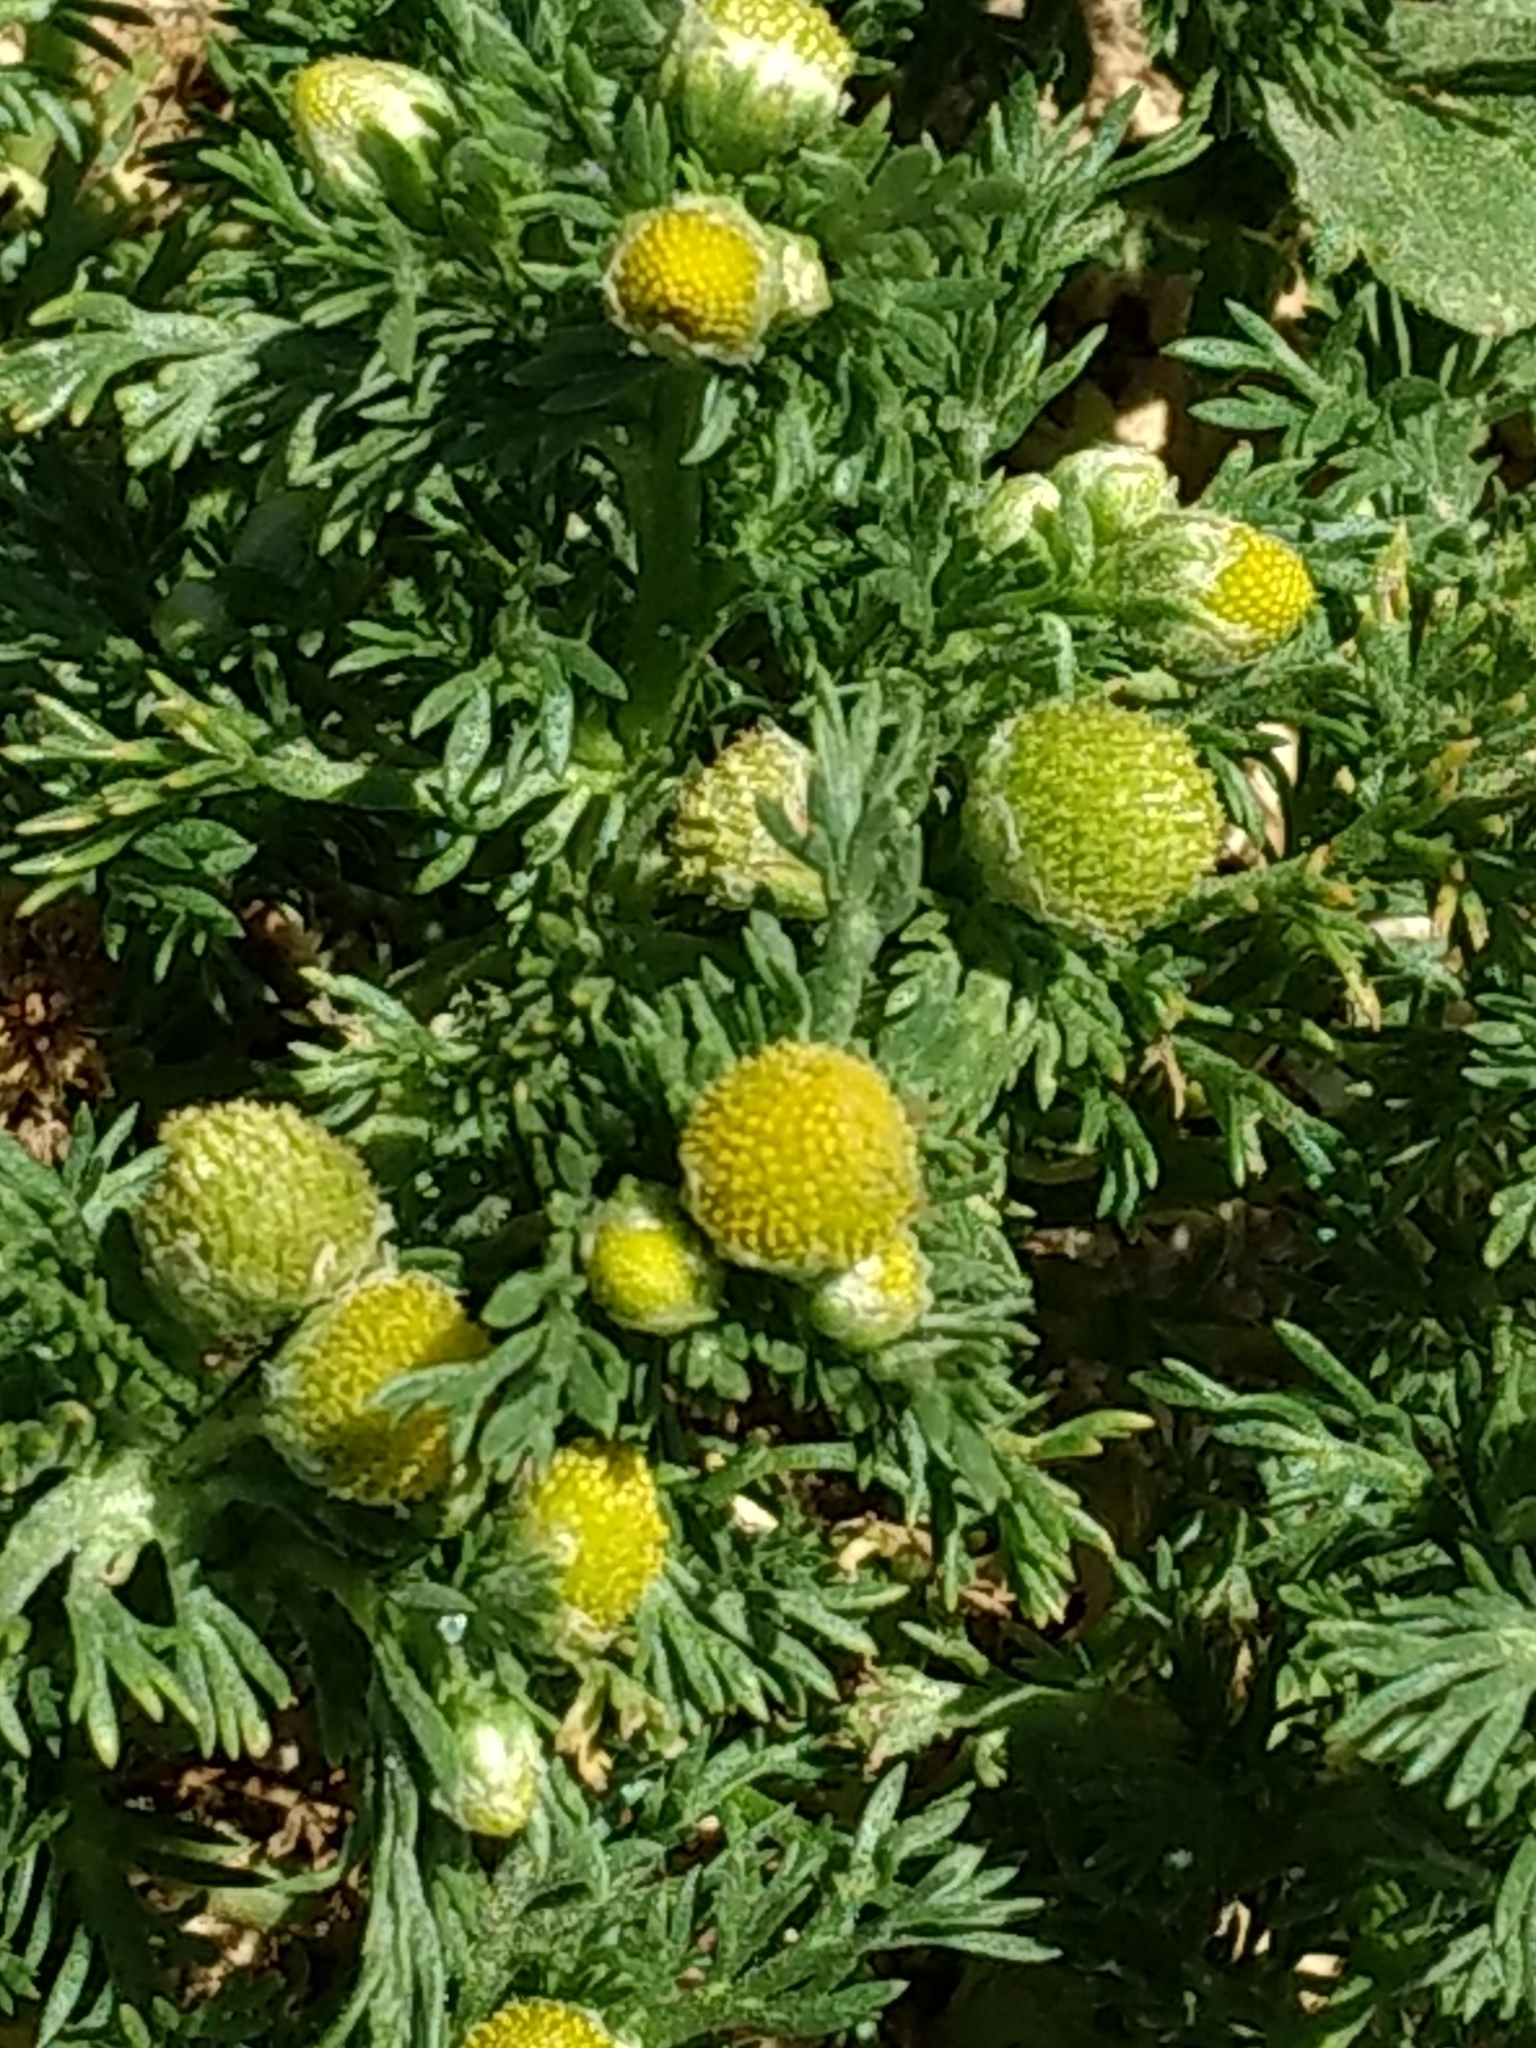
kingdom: Plantae
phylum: Tracheophyta
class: Magnoliopsida
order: Asterales
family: Asteraceae
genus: Matricaria
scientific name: Matricaria discoidea
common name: Disc mayweed
